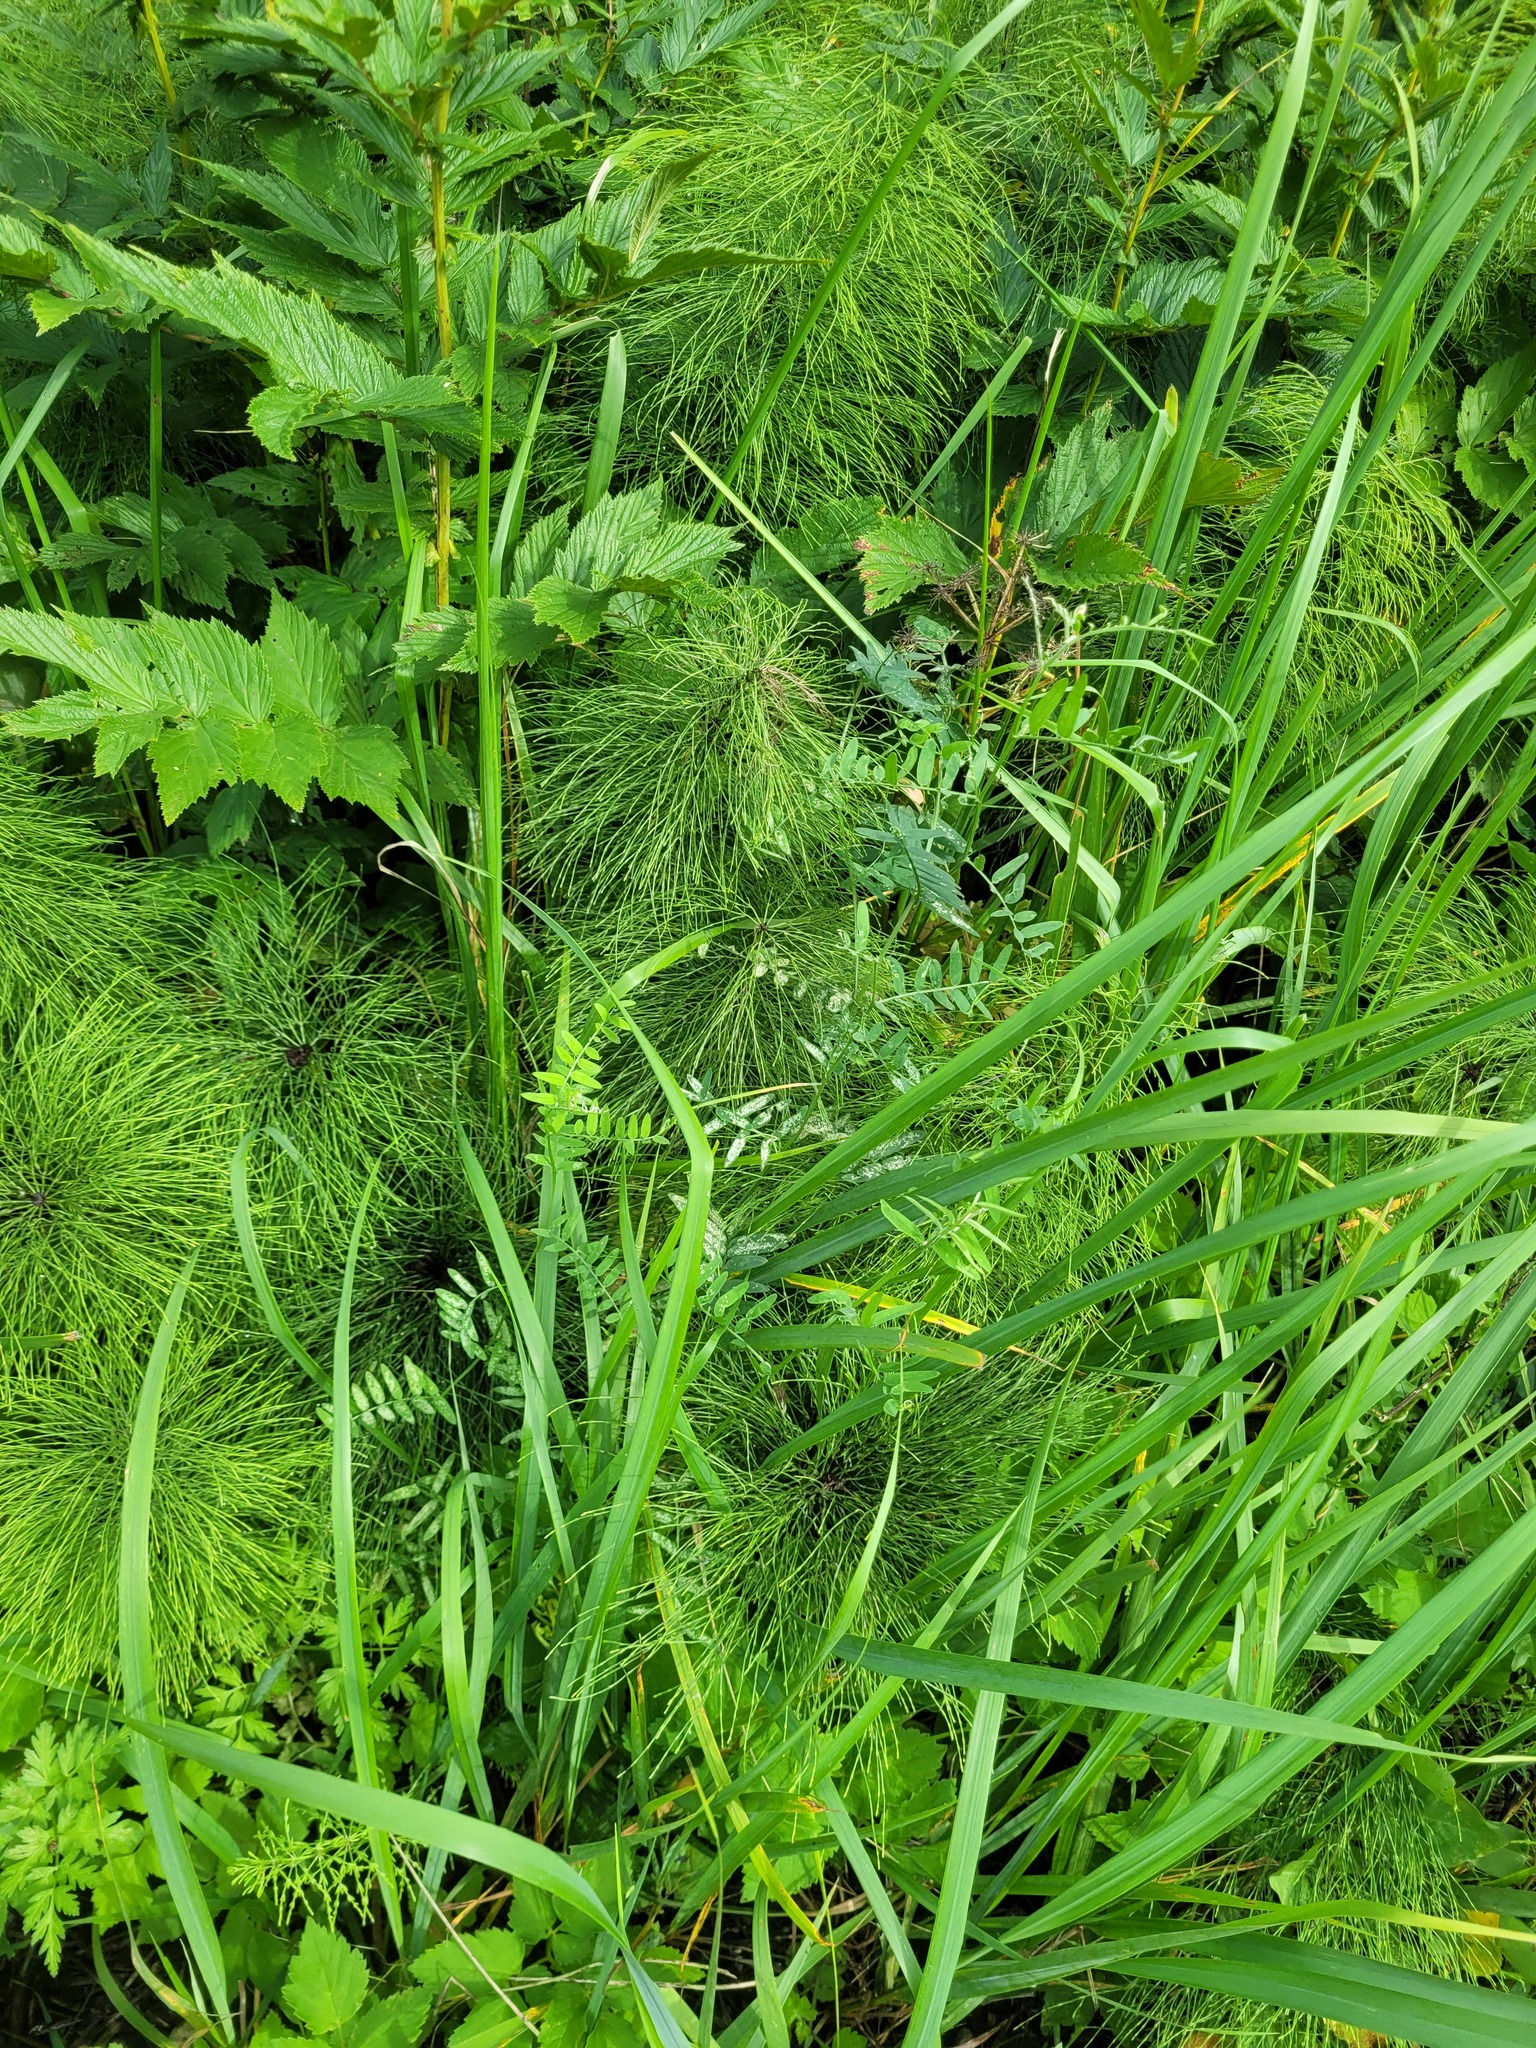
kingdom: Plantae
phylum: Tracheophyta
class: Magnoliopsida
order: Fabales
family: Fabaceae
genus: Vicia
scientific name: Vicia cracca
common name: Bird vetch
